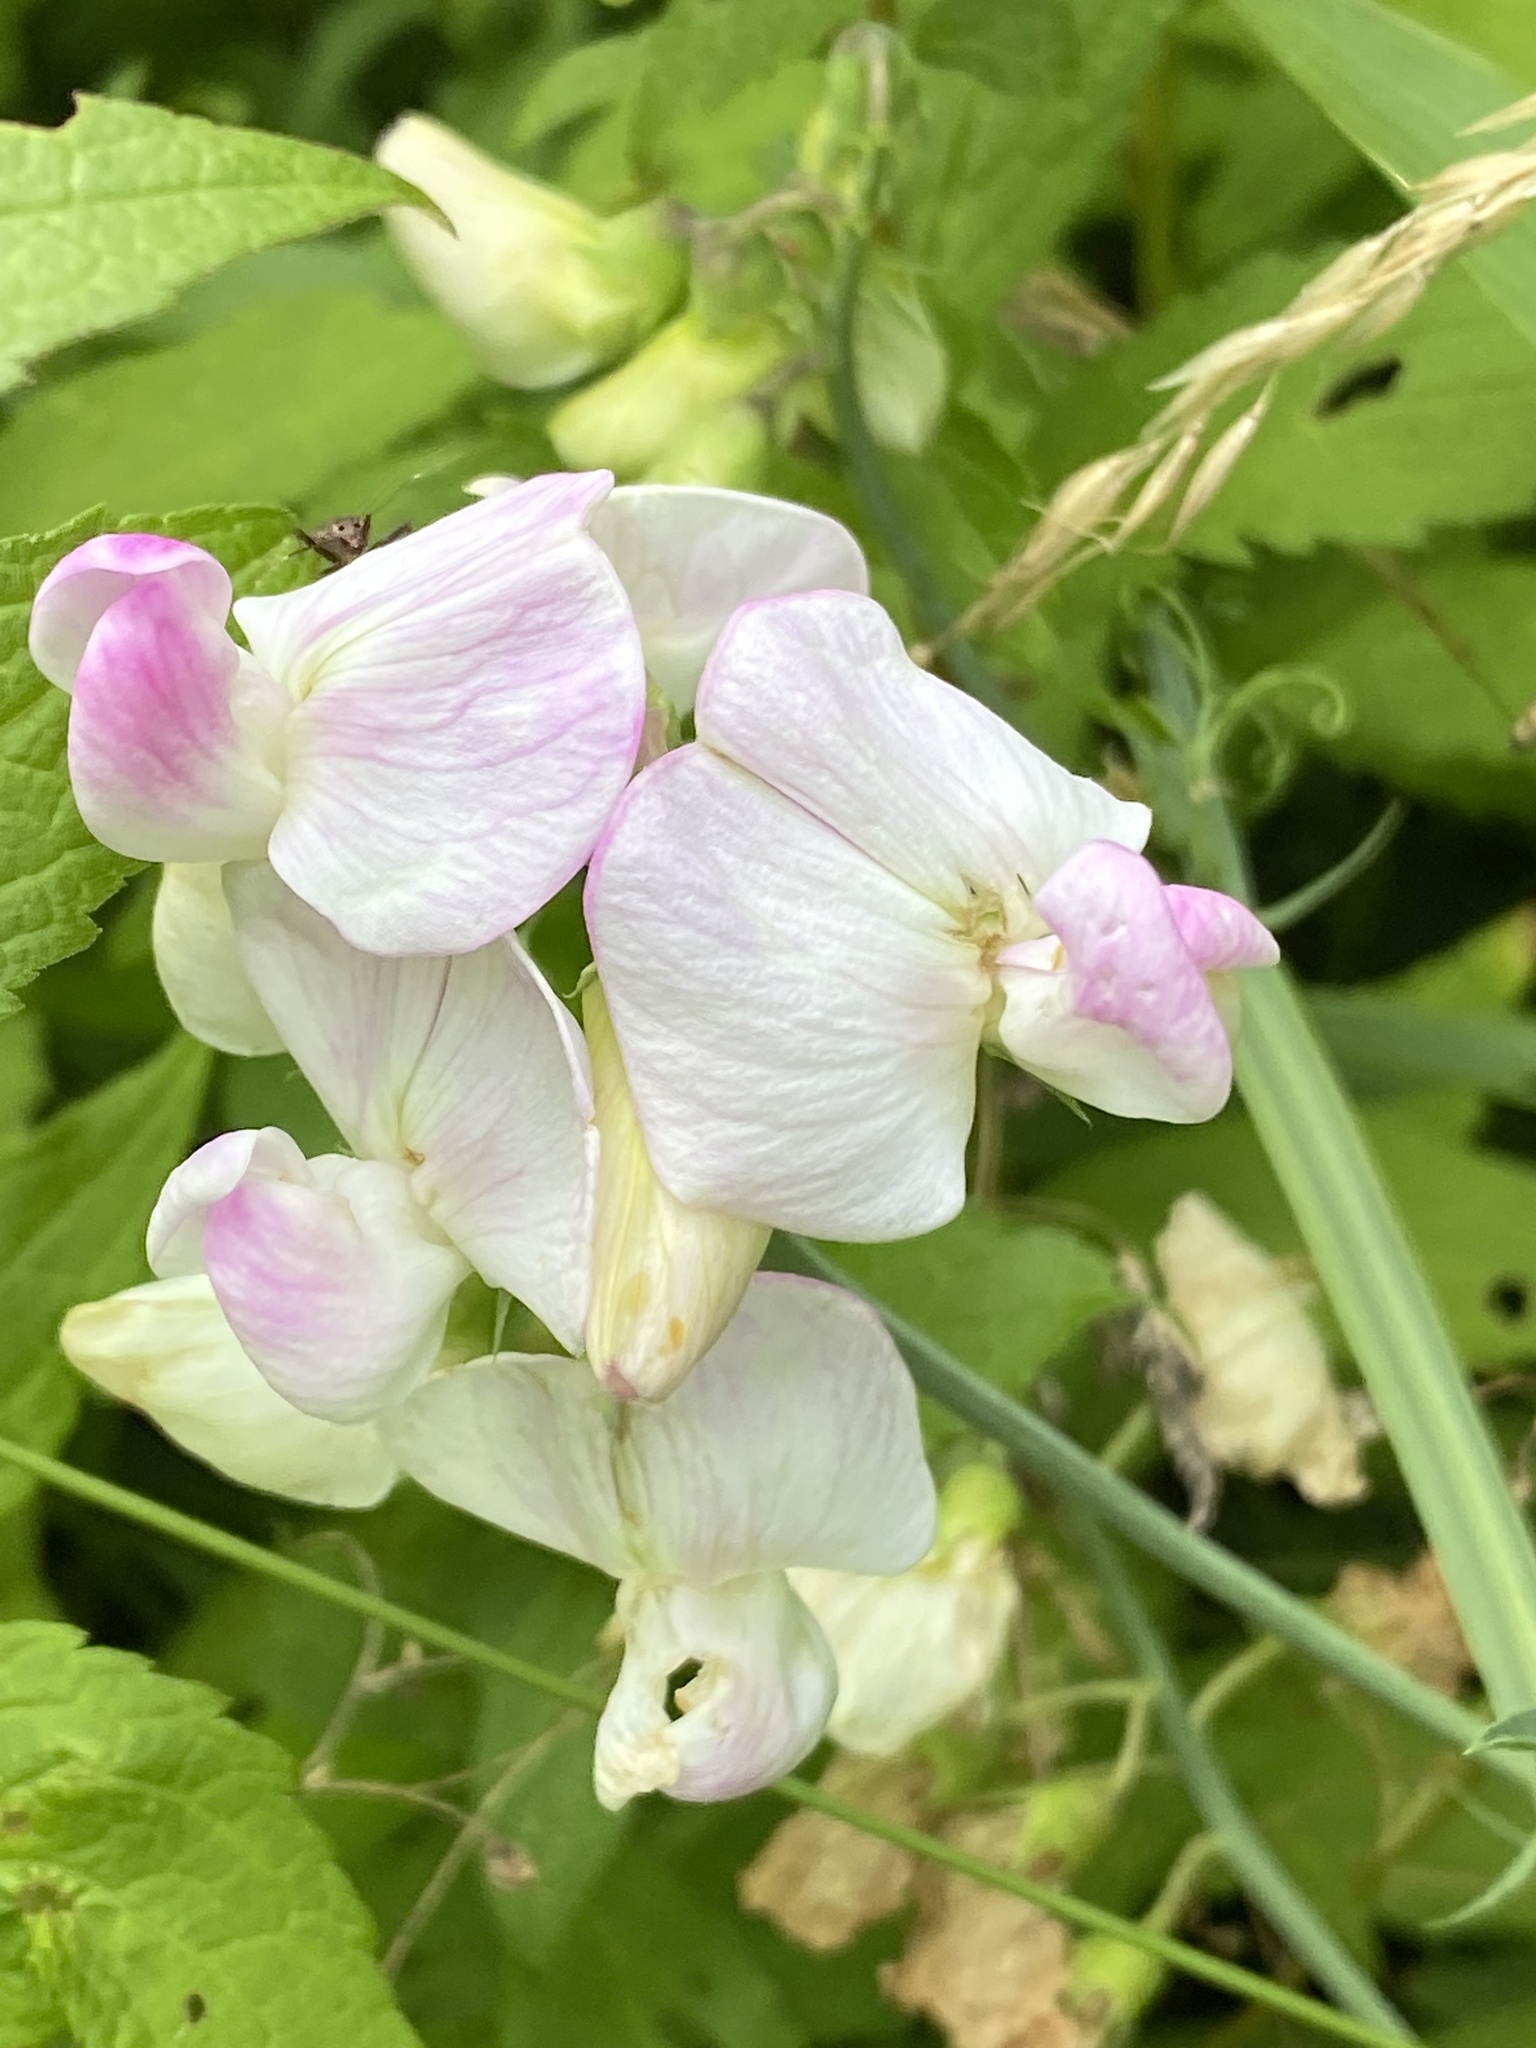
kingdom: Plantae
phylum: Tracheophyta
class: Magnoliopsida
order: Fabales
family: Fabaceae
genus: Lathyrus
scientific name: Lathyrus latifolius
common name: Perennial pea
